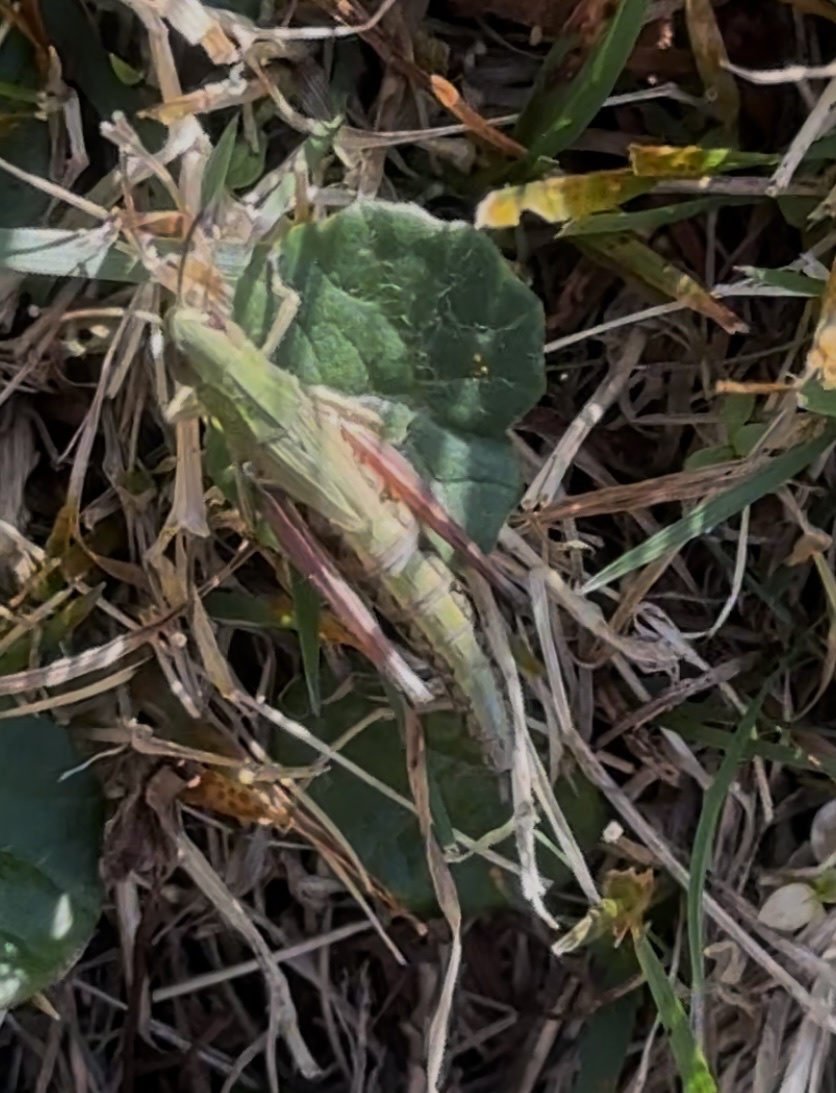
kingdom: Animalia
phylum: Arthropoda
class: Insecta
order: Orthoptera
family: Acrididae
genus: Pseudochorthippus
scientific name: Pseudochorthippus parallelus
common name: Meadow grasshopper
